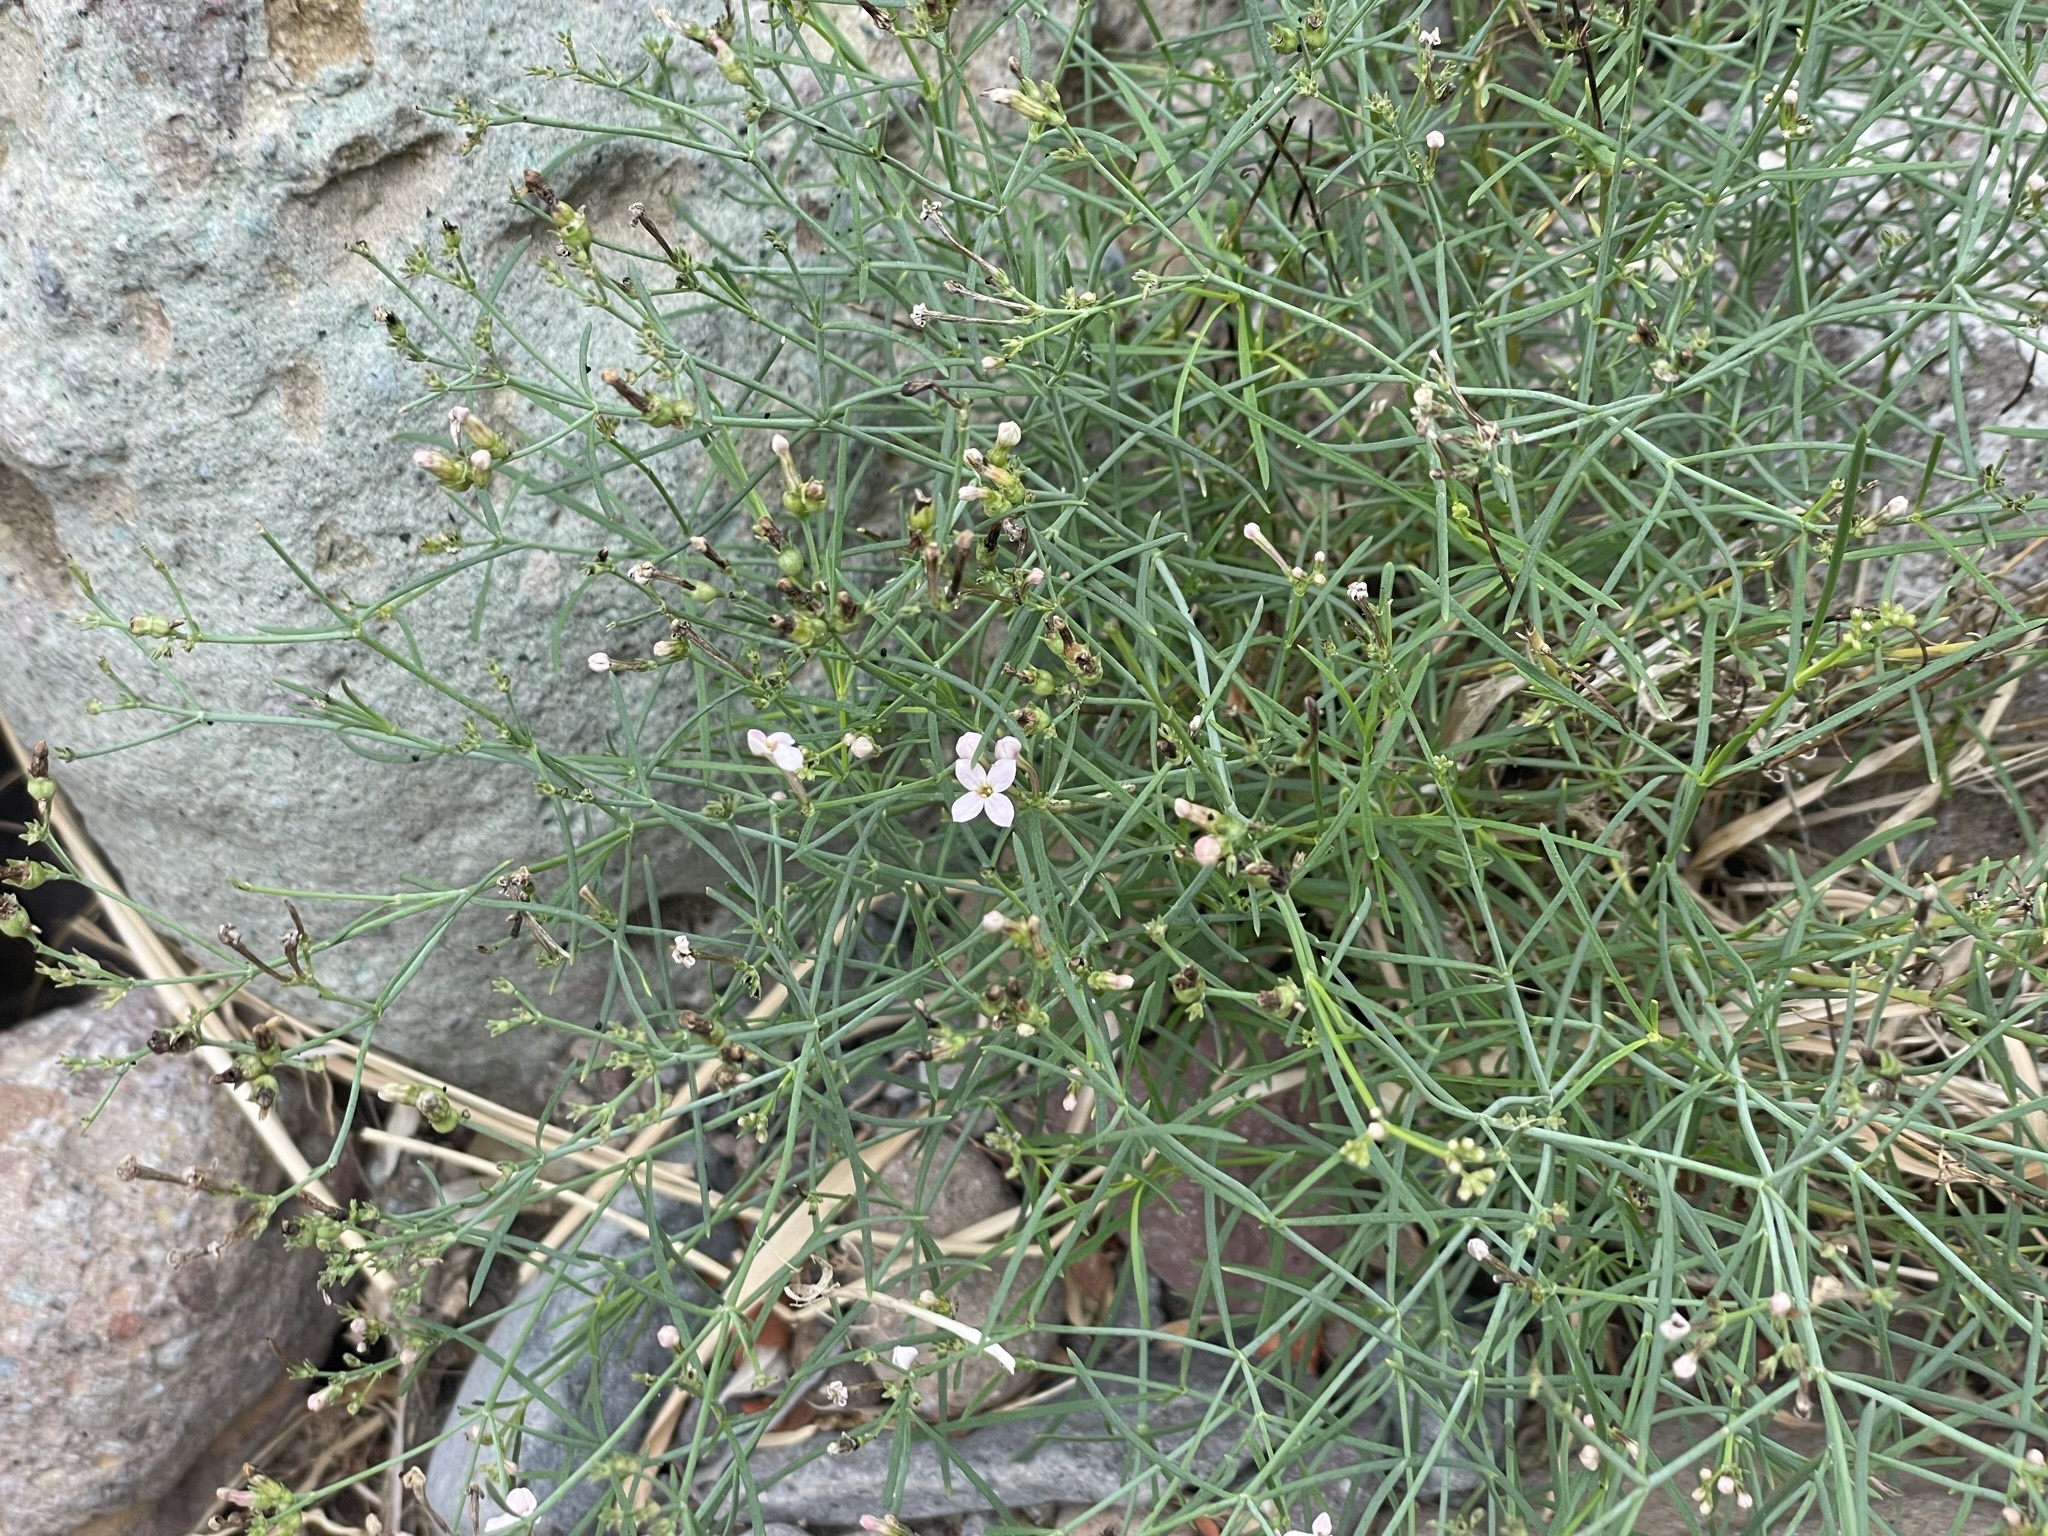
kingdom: Plantae
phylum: Tracheophyta
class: Magnoliopsida
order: Gentianales
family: Rubiaceae
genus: Stenotis
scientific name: Stenotis brevipes
